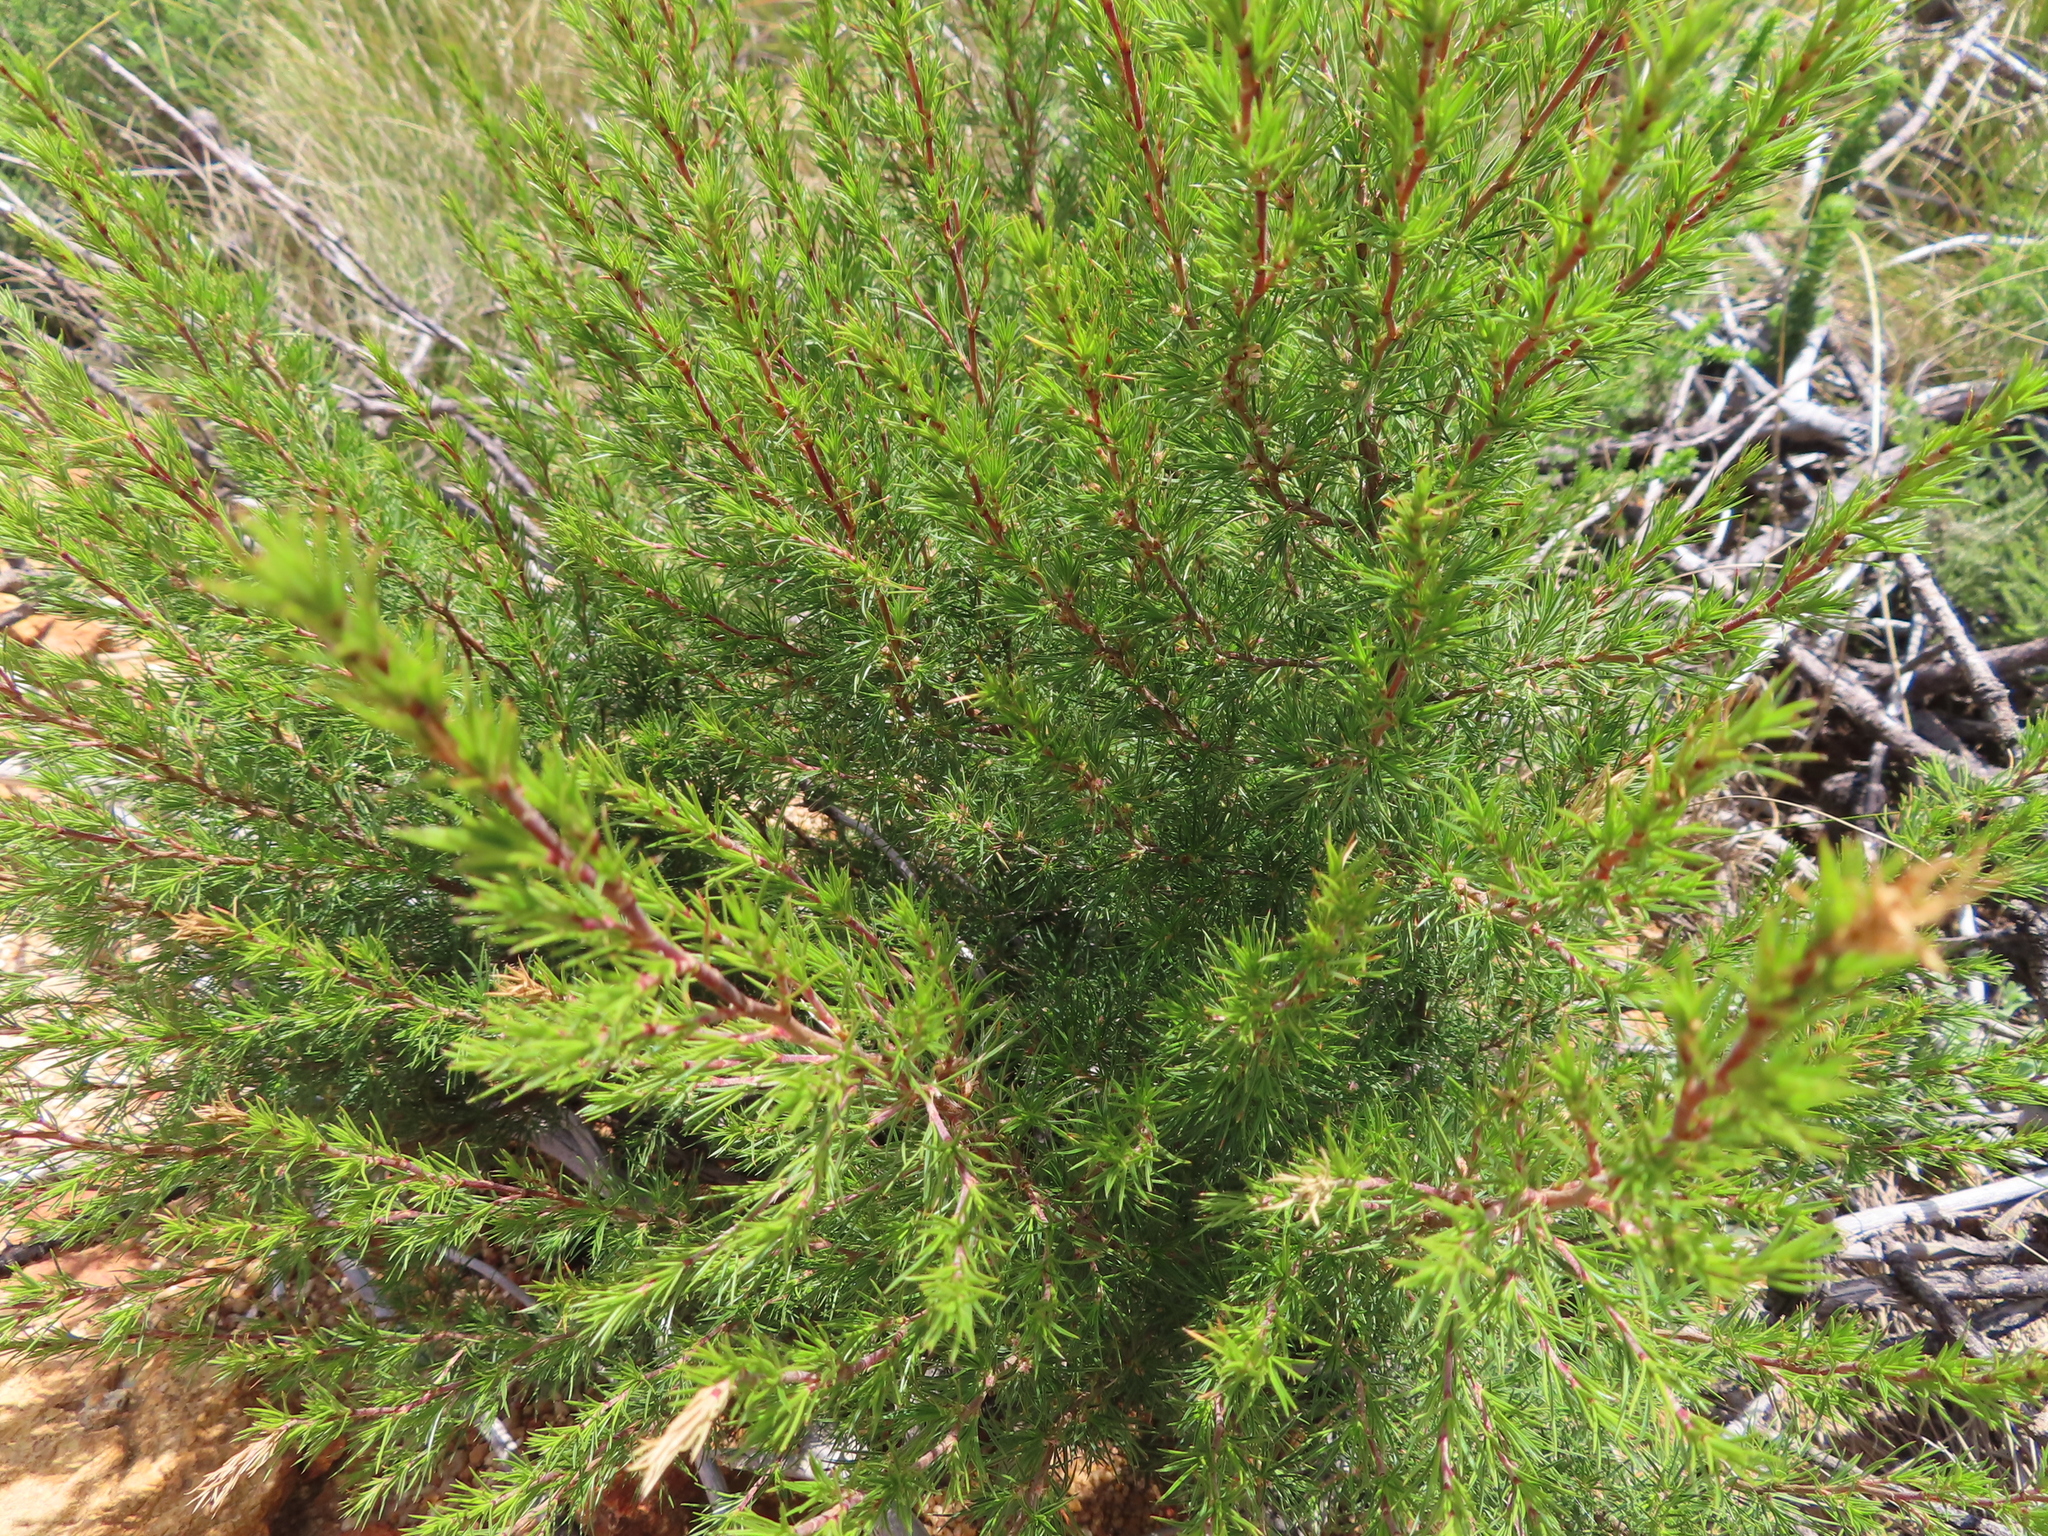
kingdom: Plantae
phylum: Tracheophyta
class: Magnoliopsida
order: Rosales
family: Rosaceae
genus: Cliffortia
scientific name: Cliffortia atrata
